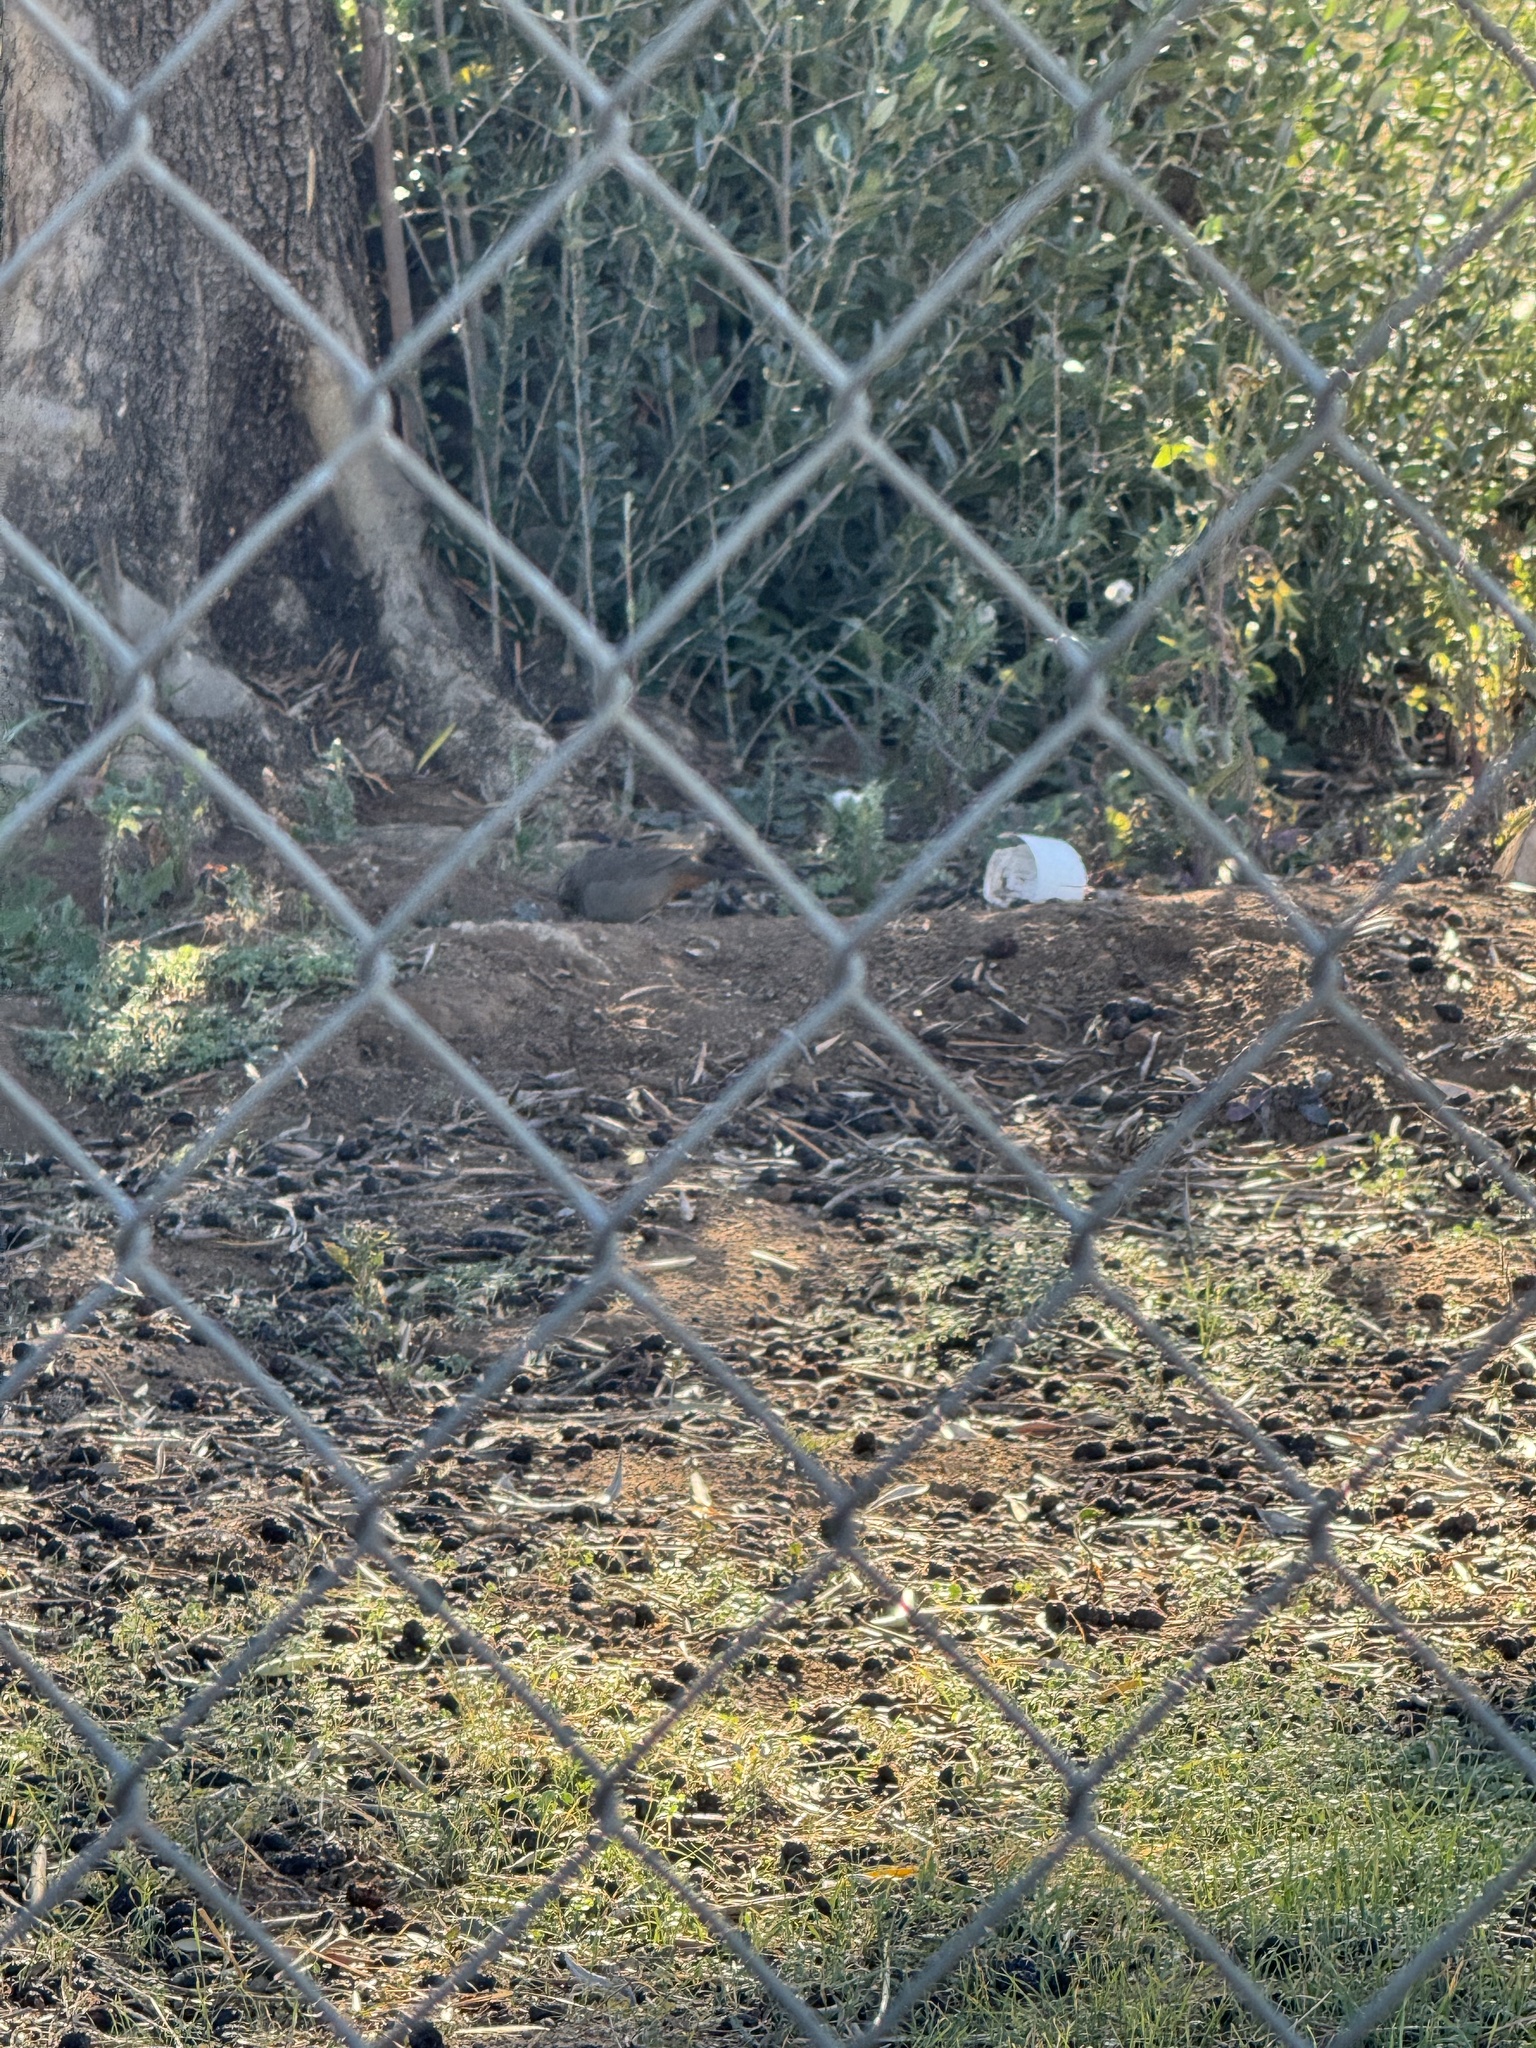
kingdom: Animalia
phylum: Chordata
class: Aves
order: Passeriformes
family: Passerellidae
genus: Melozone
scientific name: Melozone crissalis
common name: California towhee
